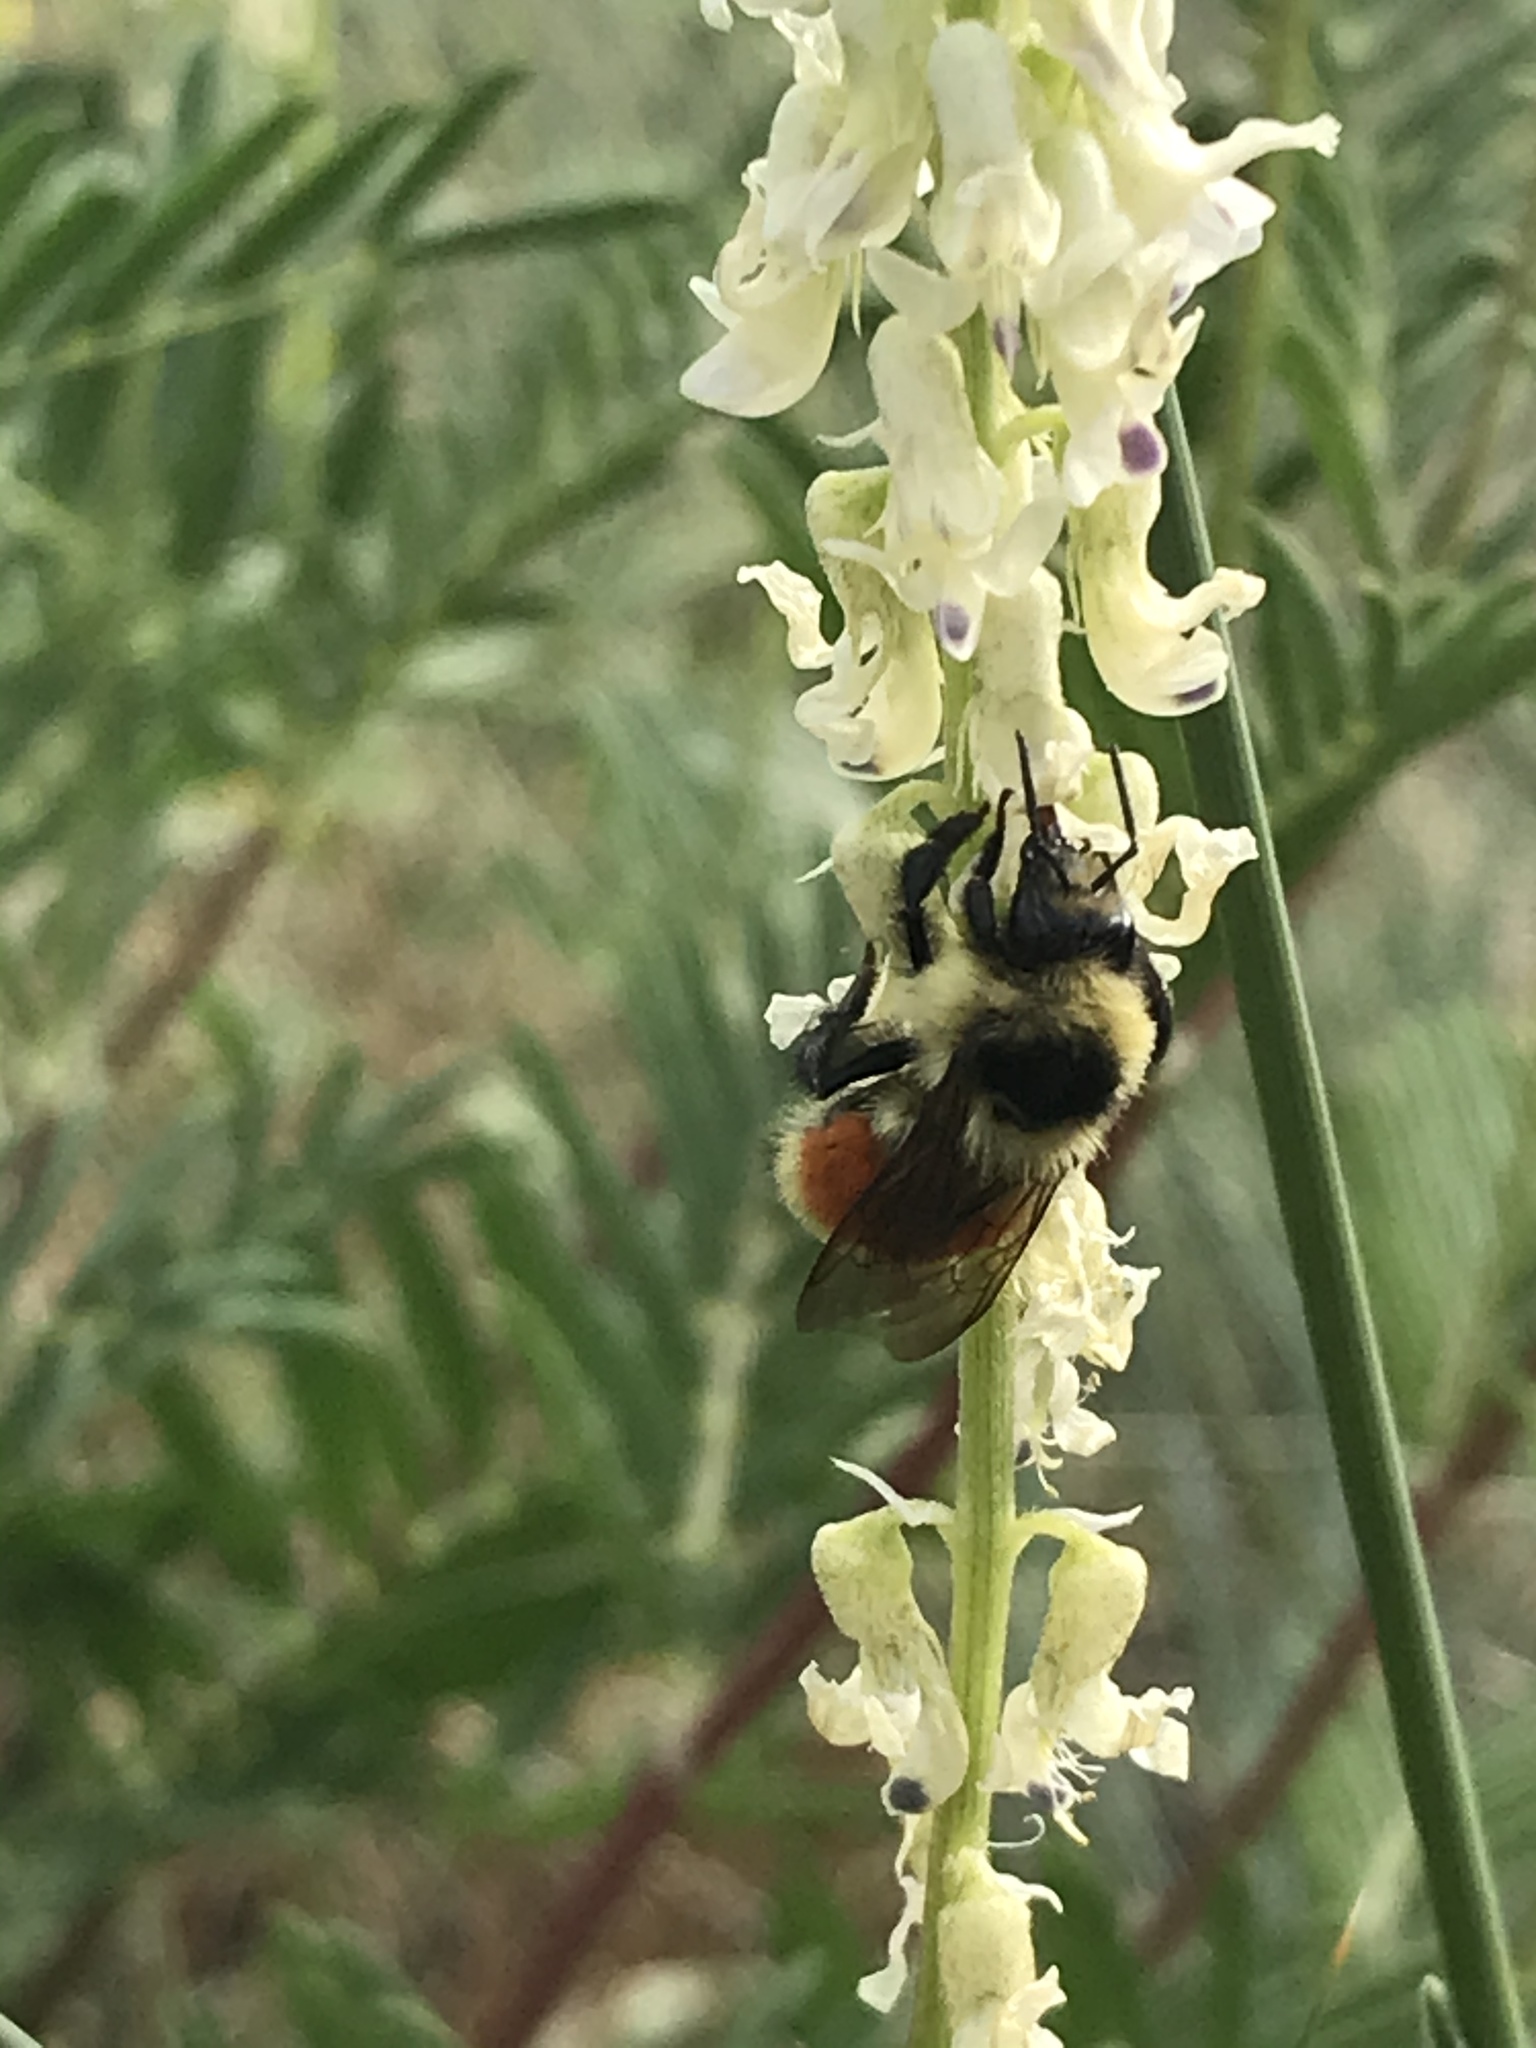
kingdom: Animalia
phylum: Arthropoda
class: Insecta
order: Hymenoptera
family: Apidae
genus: Bombus
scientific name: Bombus huntii
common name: Hunt bumble bee
